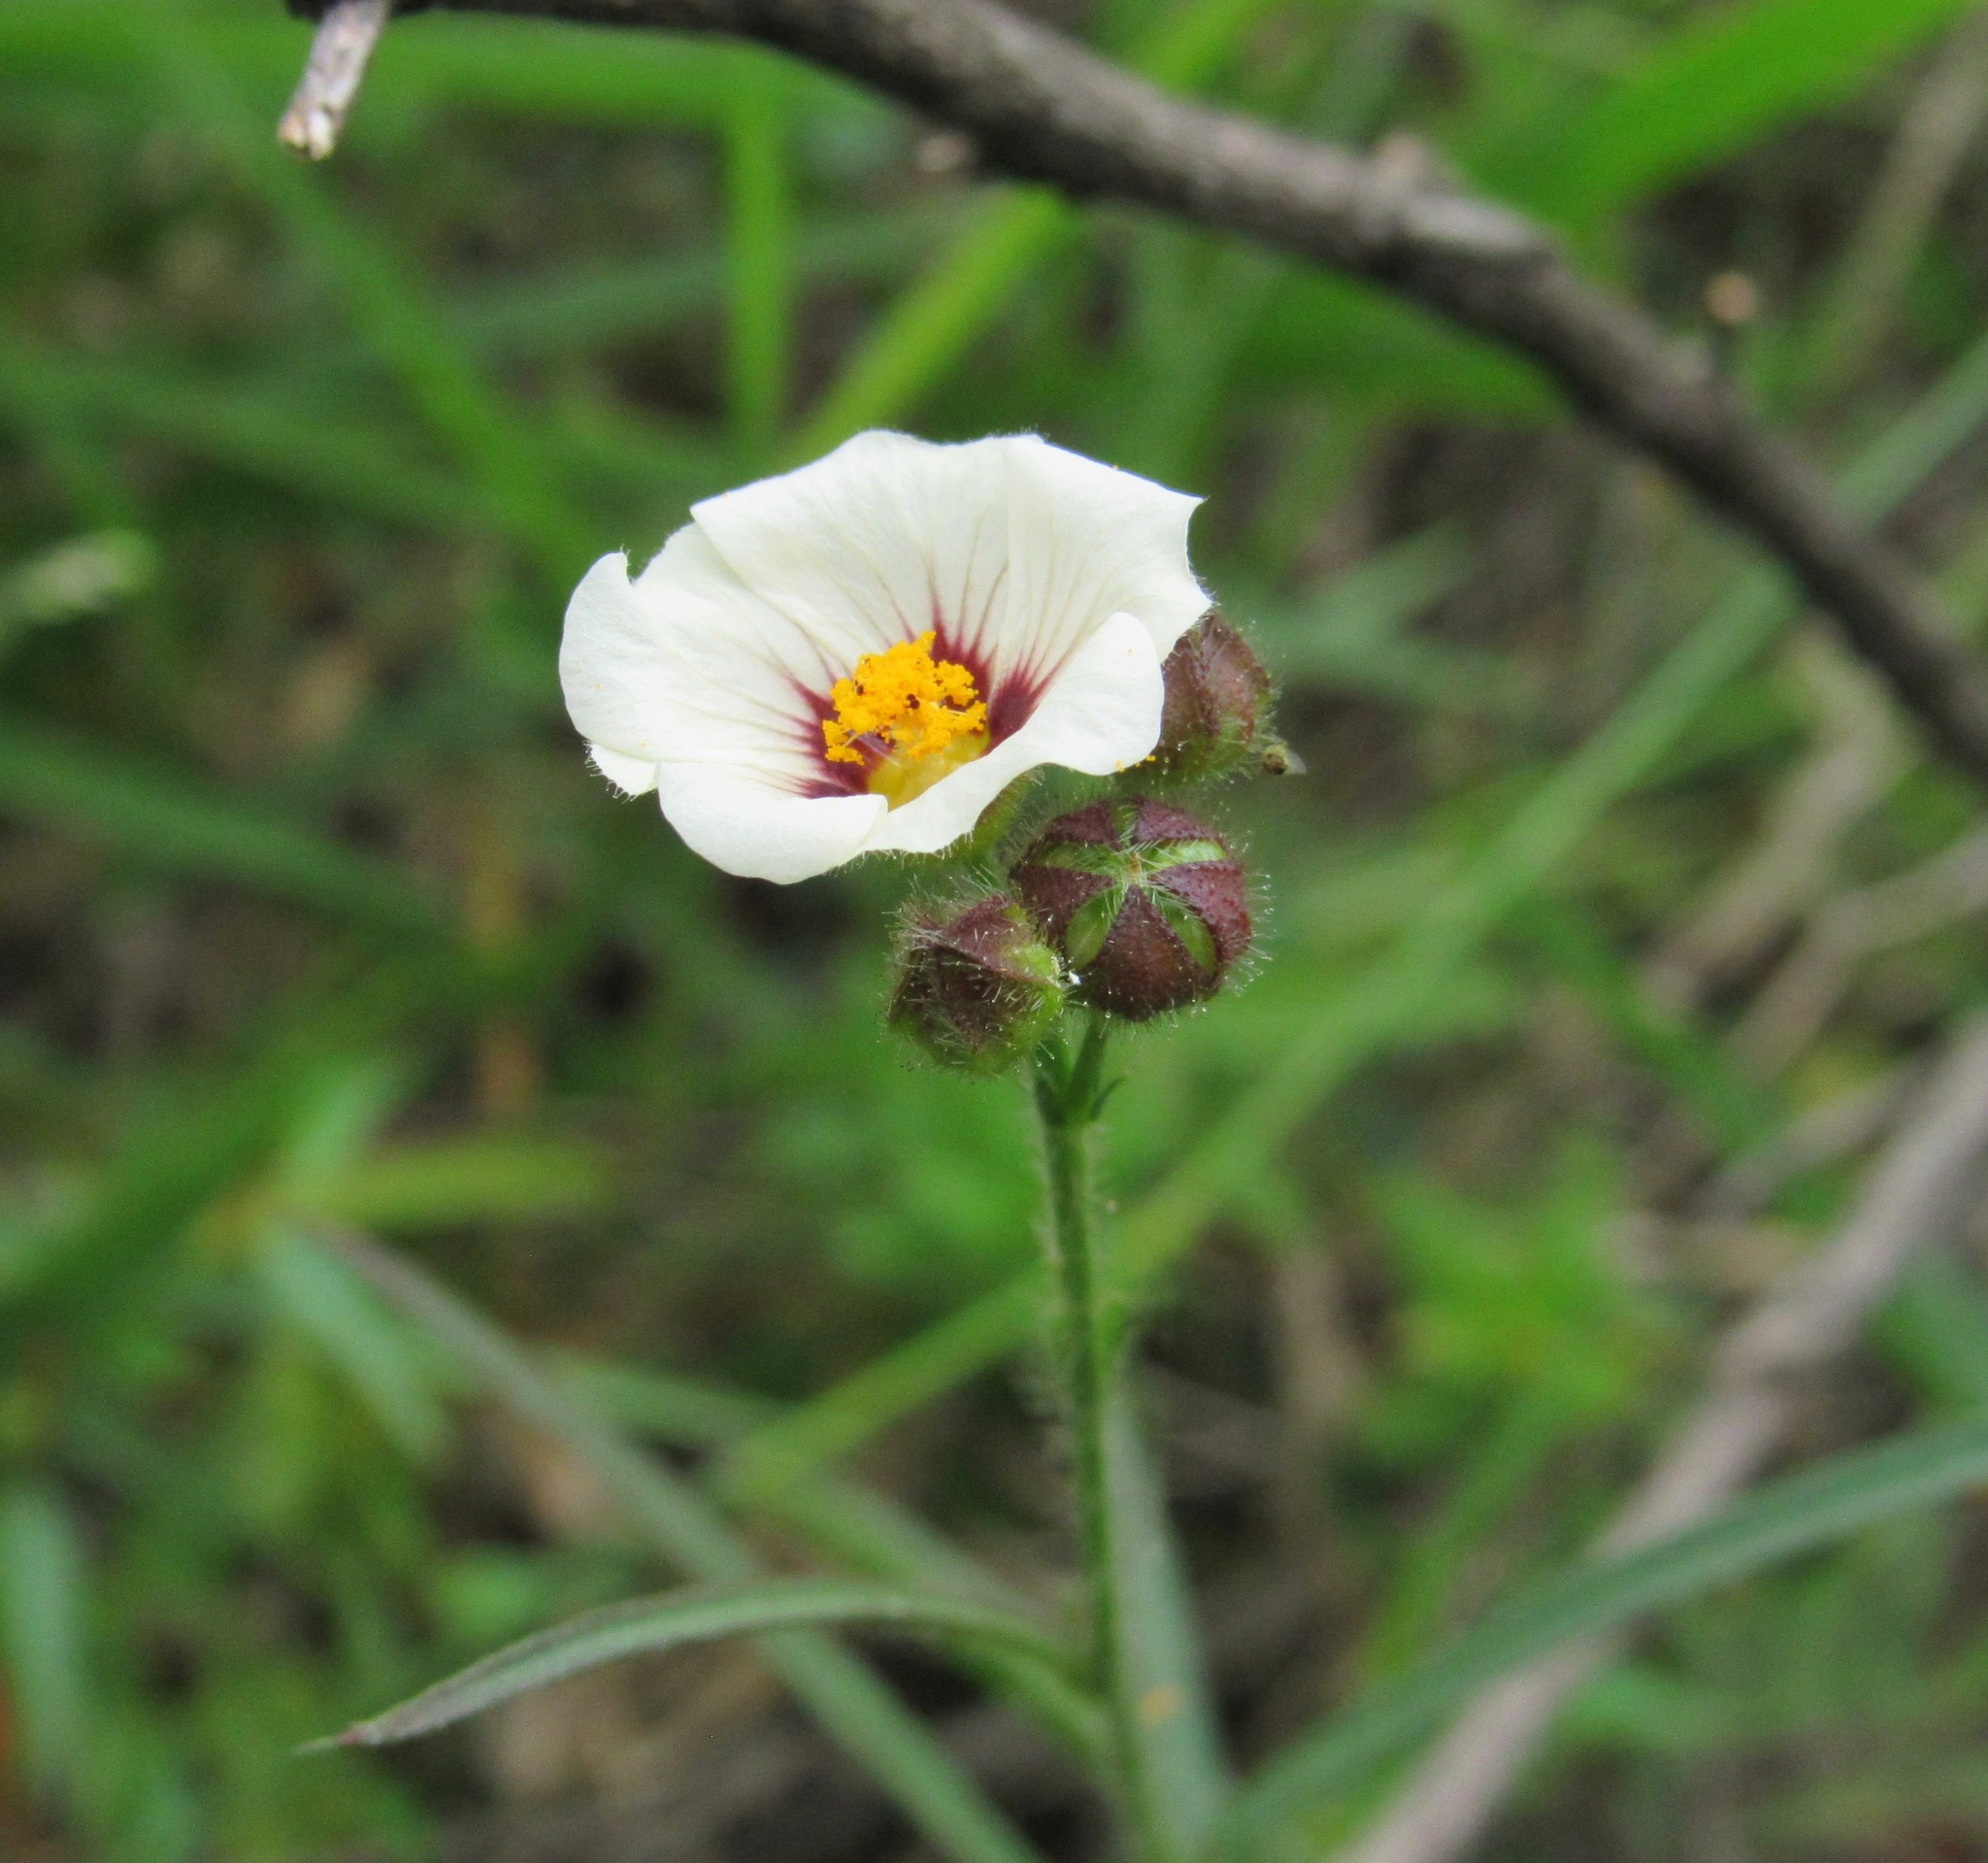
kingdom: Plantae
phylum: Tracheophyta
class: Magnoliopsida
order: Malvales
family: Malvaceae
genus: Sida
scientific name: Sida linifolia
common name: Flaxleaf fanpetals
